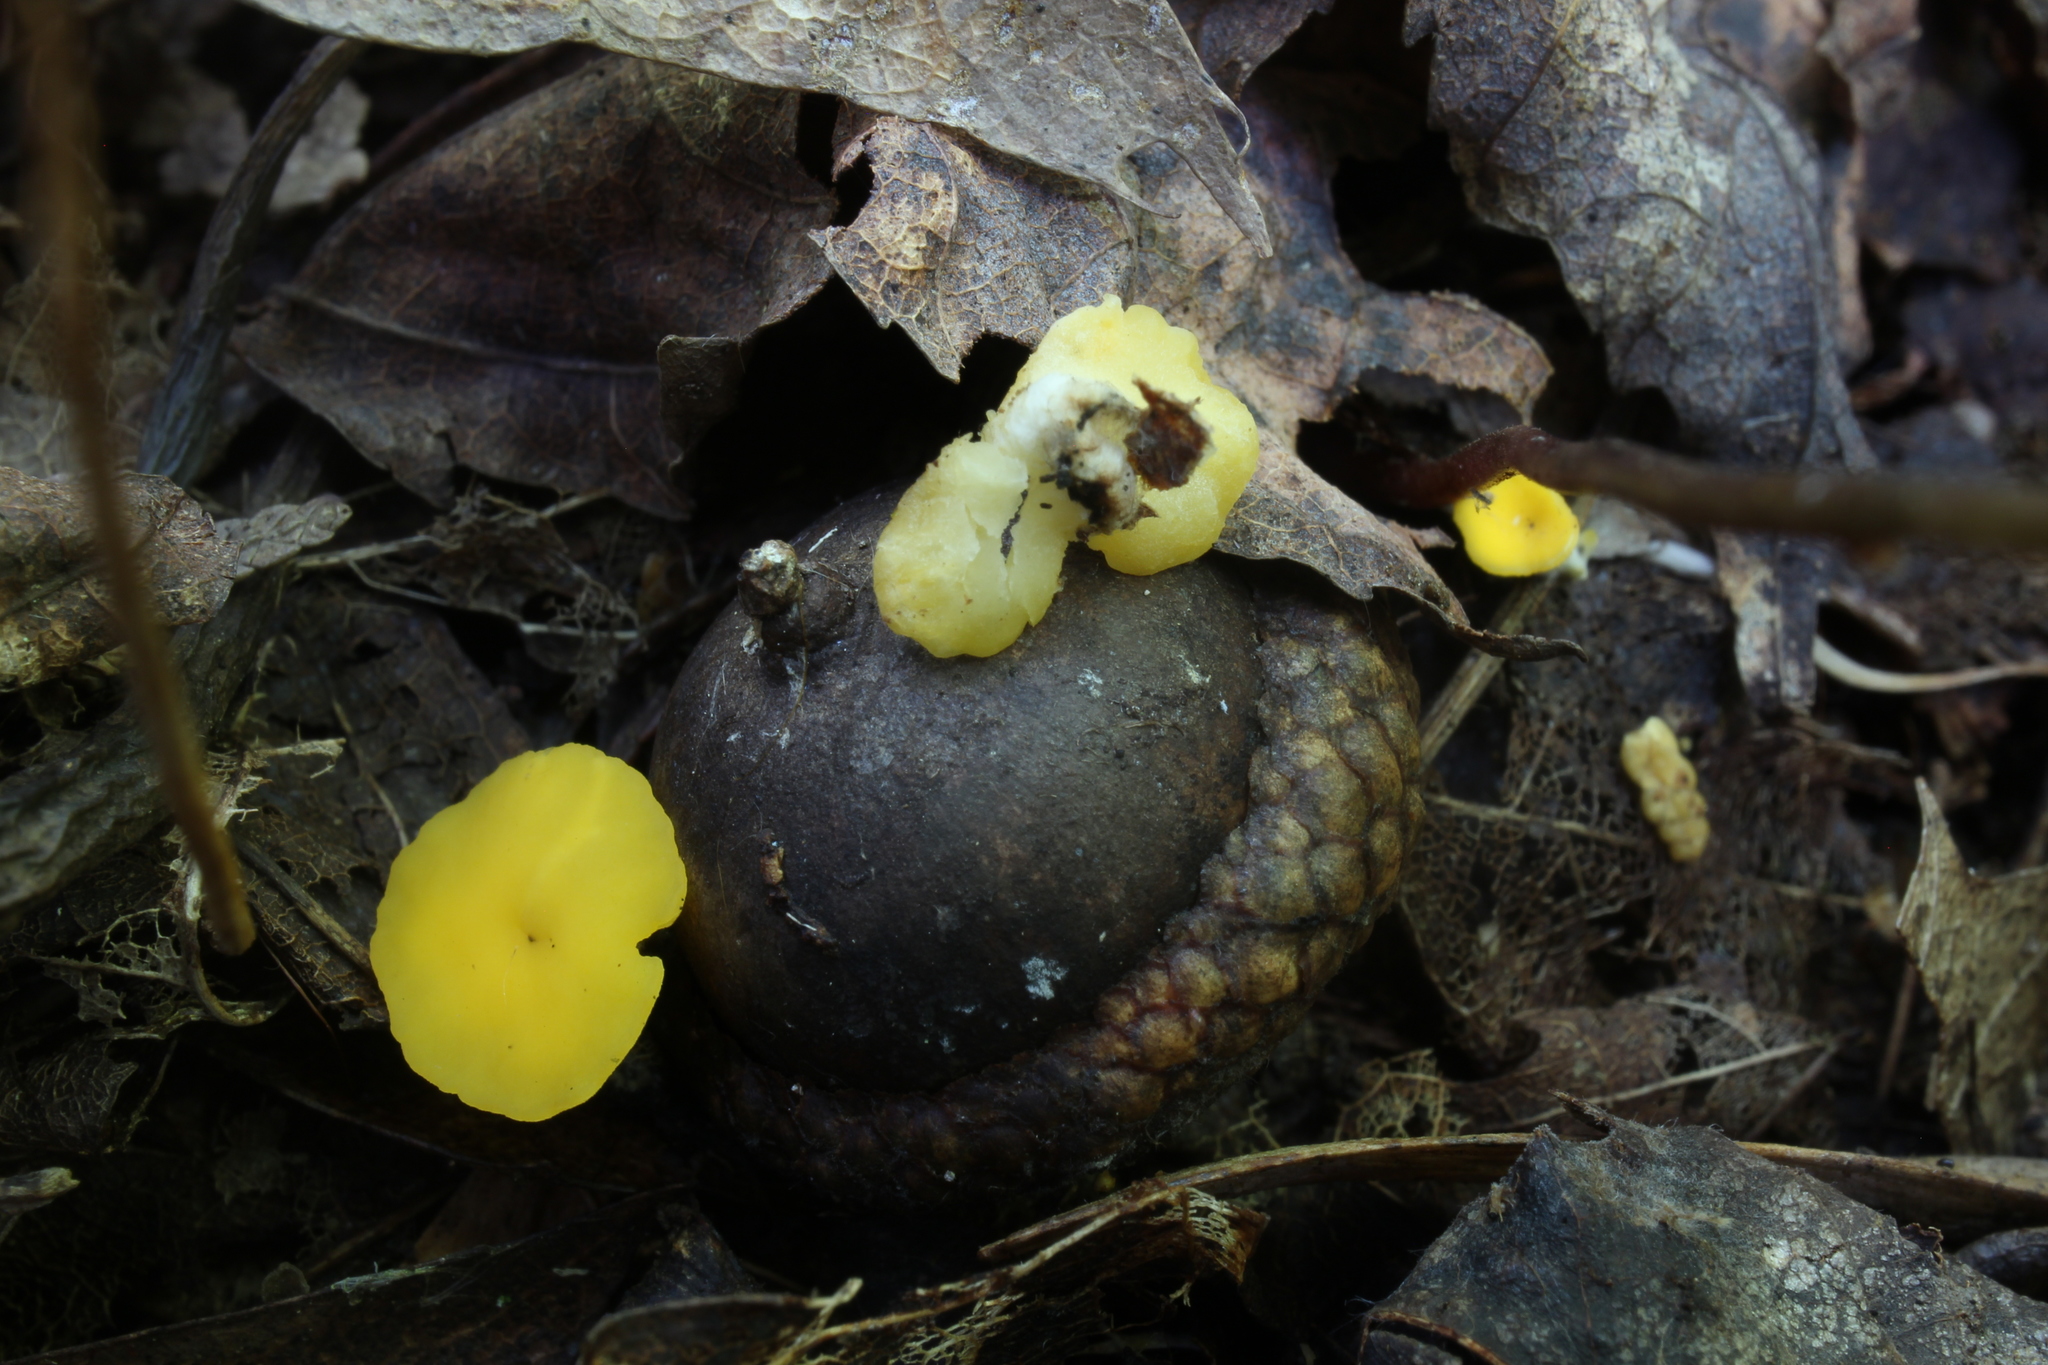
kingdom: Fungi
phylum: Ascomycota
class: Leotiomycetes
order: Helotiales
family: Helotiaceae
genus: Hymenoscyphus
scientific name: Hymenoscyphus epiphyllus
